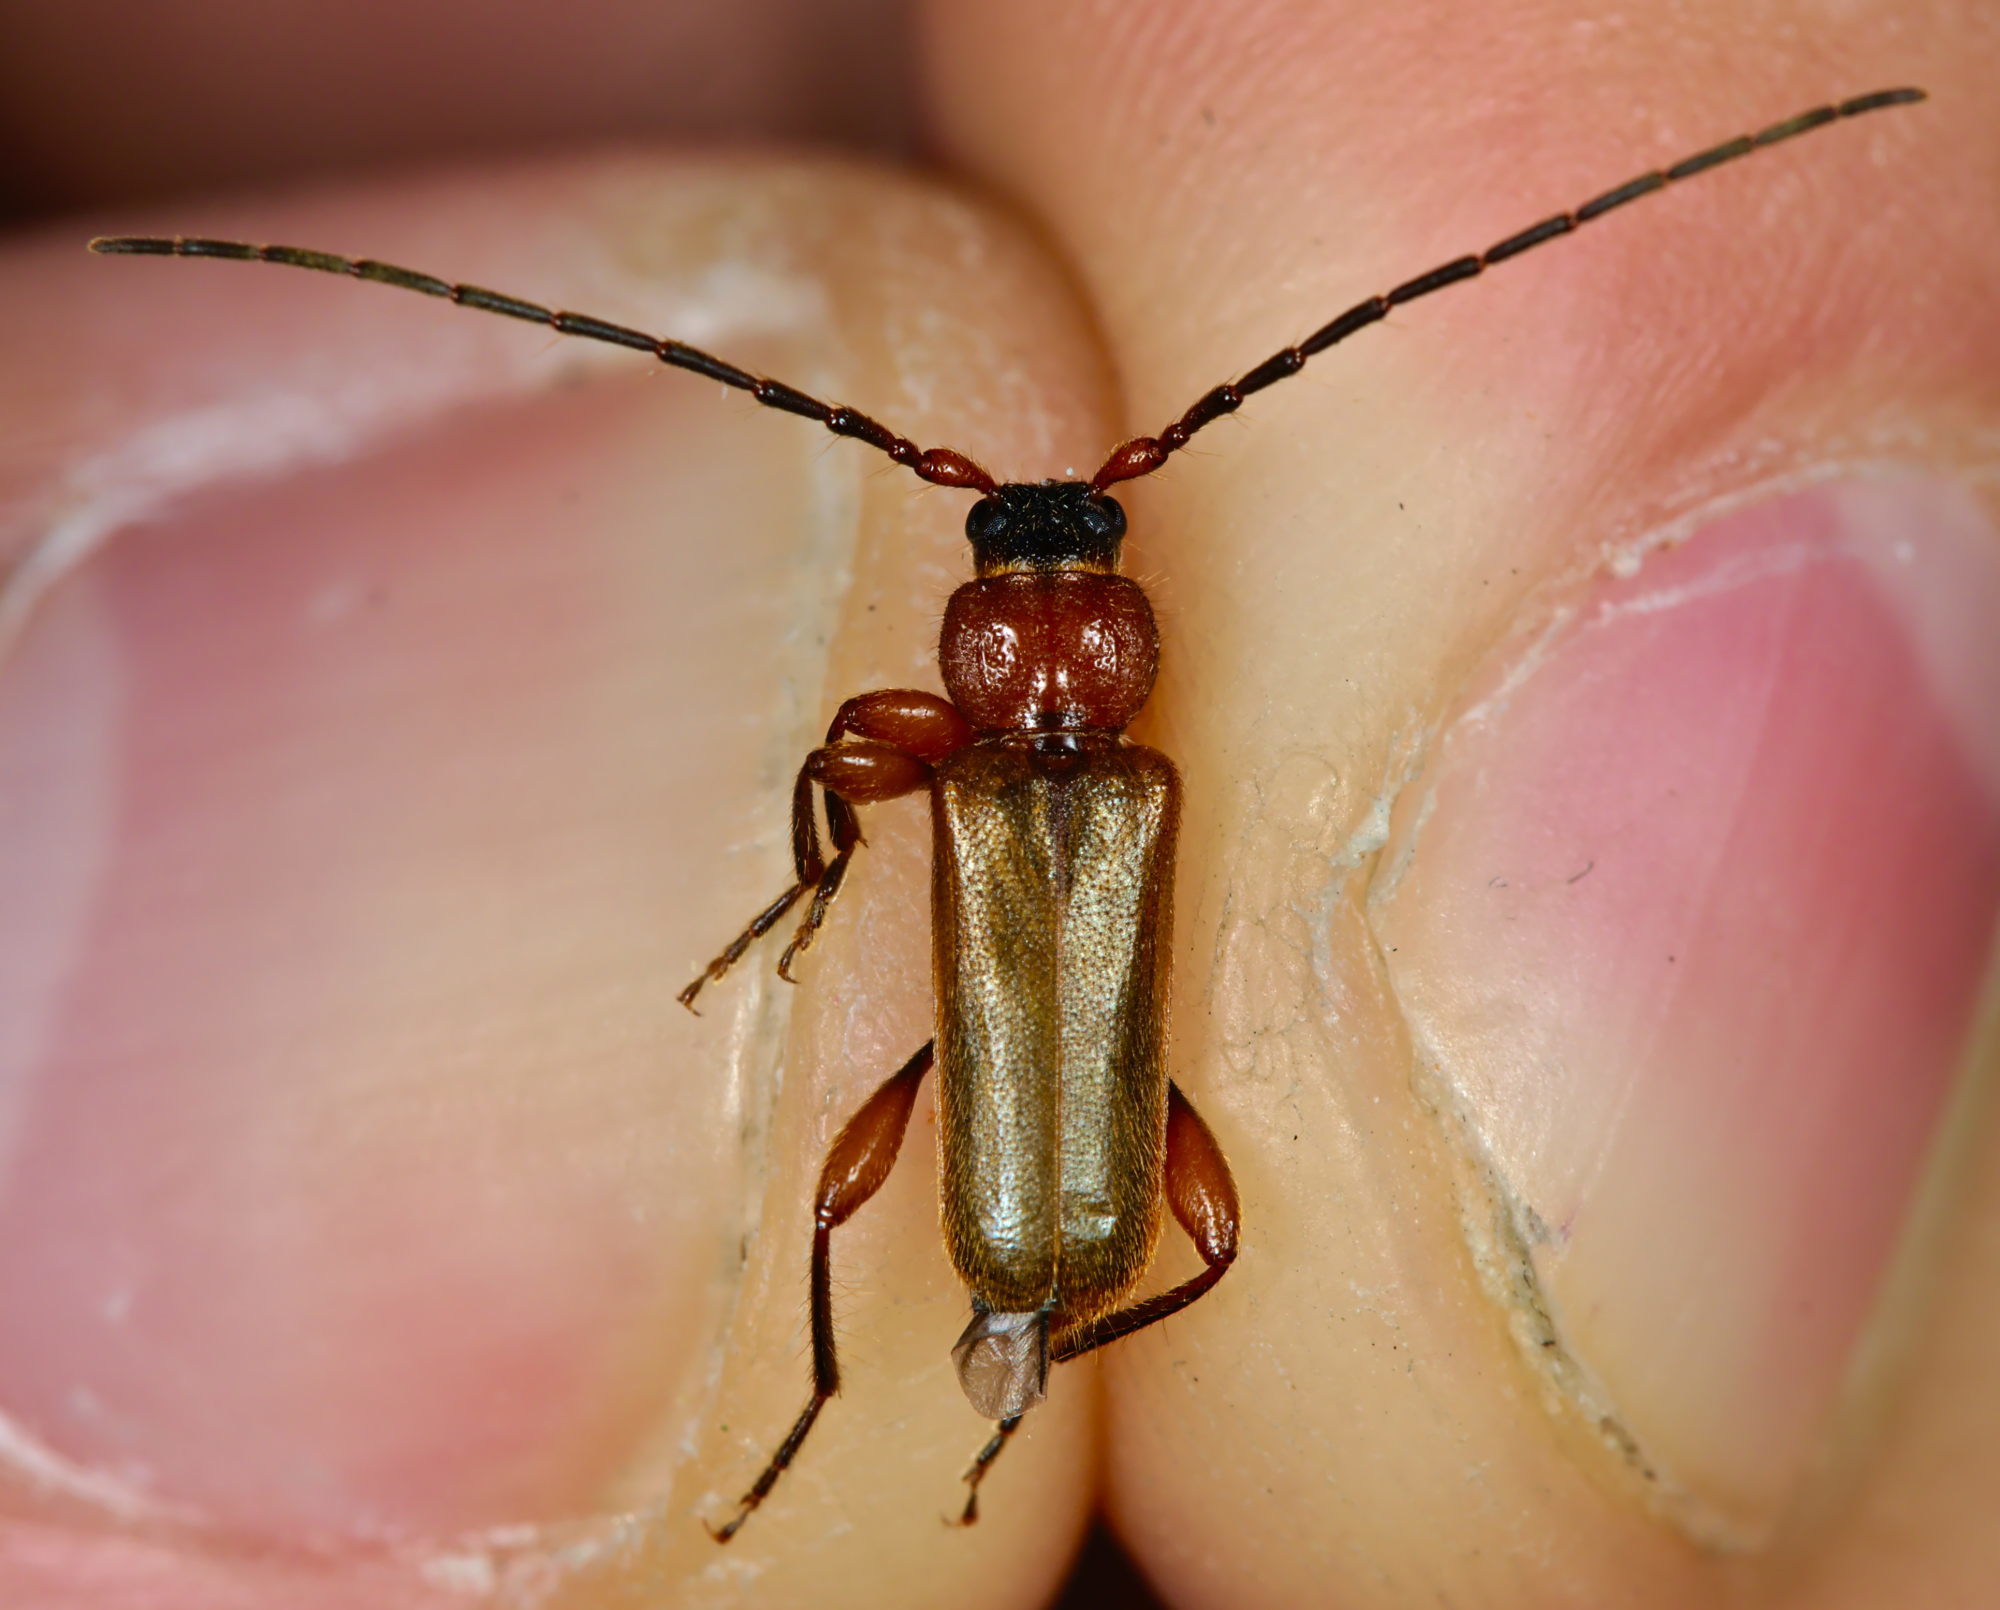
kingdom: Animalia
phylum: Arthropoda
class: Insecta
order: Coleoptera
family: Cerambycidae
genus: Phymatodes
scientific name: Phymatodes testaceus
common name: Long-horned beetle
